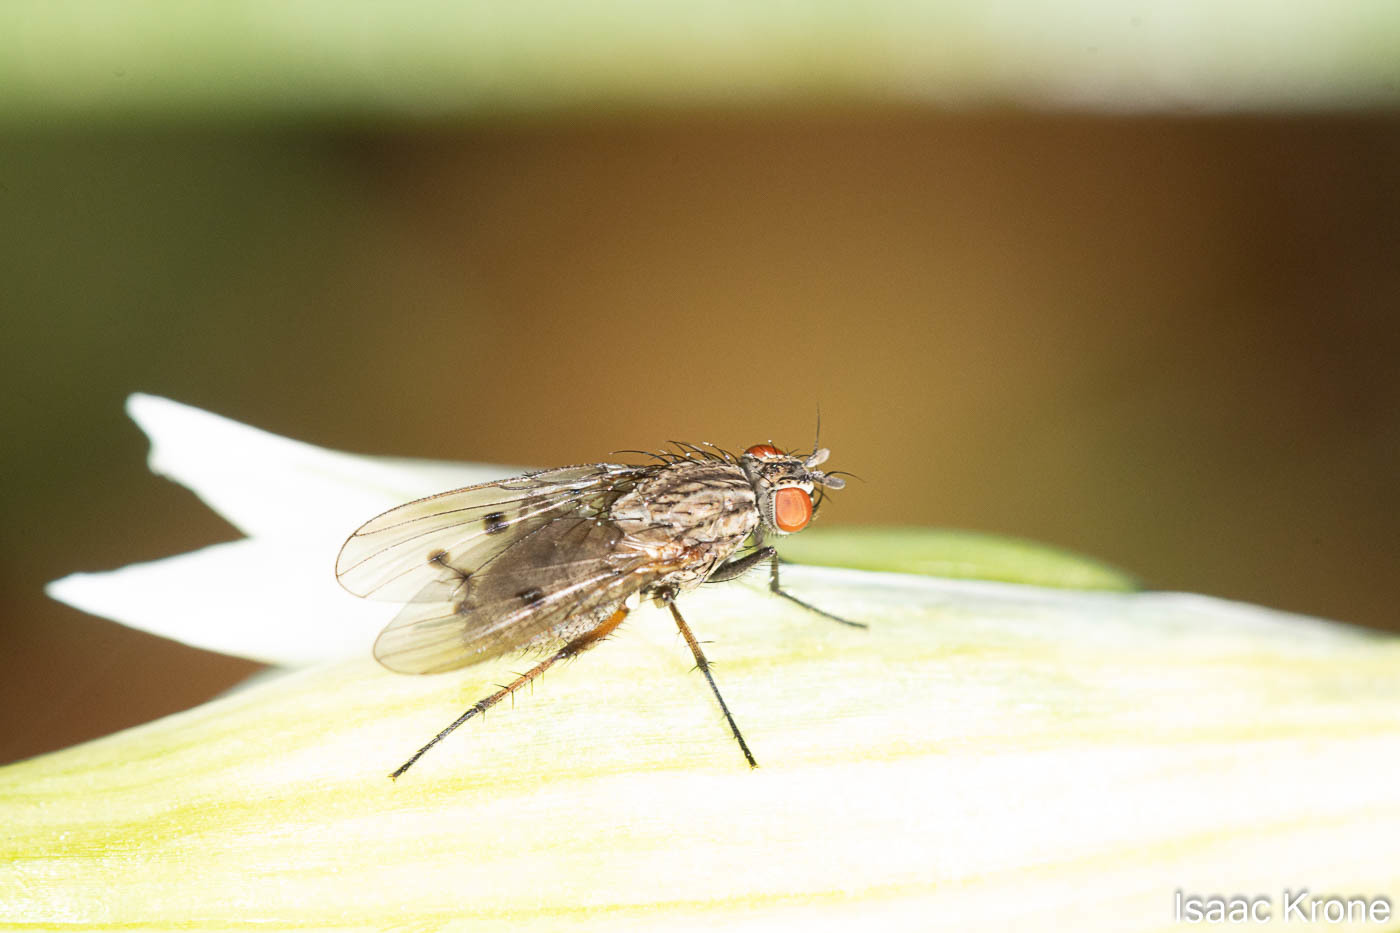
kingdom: Animalia
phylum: Arthropoda
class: Insecta
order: Diptera
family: Anthomyiidae
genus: Anthomyia
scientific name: Anthomyia ochripes
